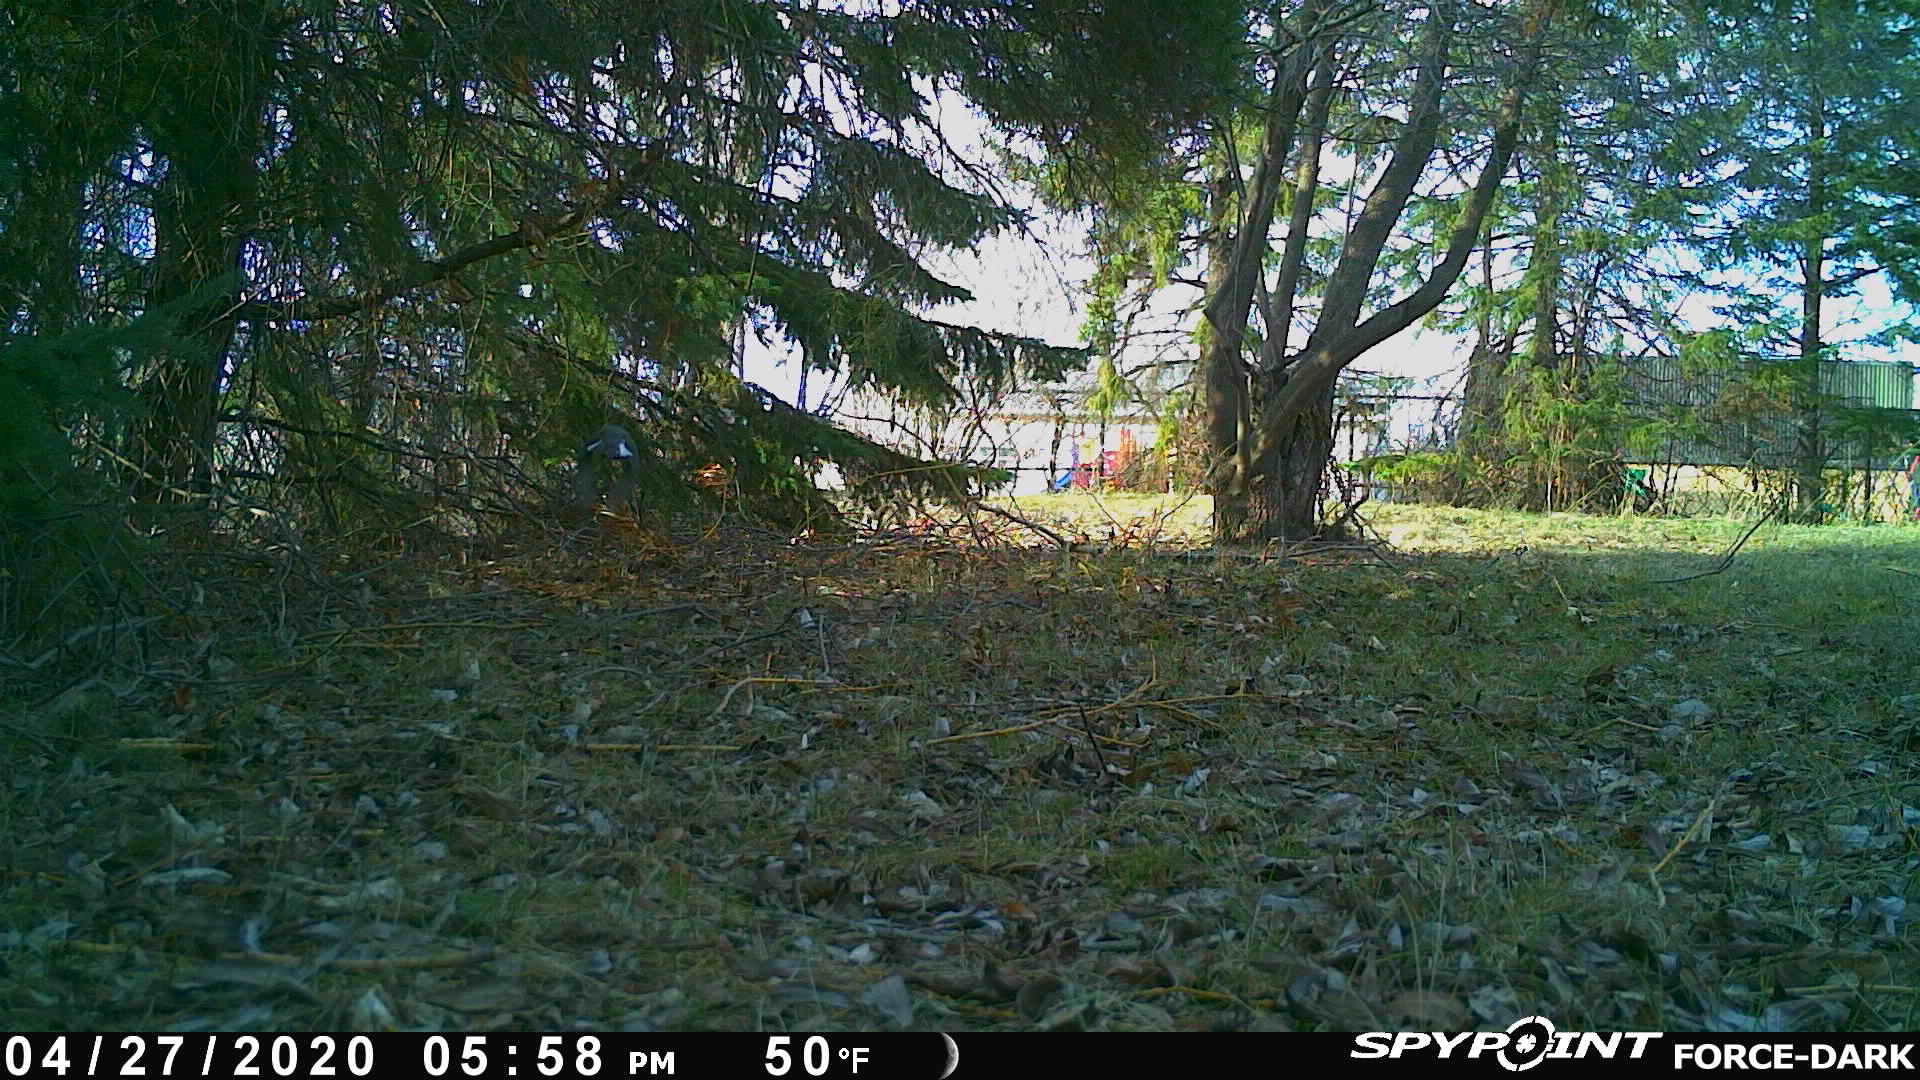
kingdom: Animalia
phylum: Chordata
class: Aves
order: Passeriformes
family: Passerellidae
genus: Junco
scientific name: Junco hyemalis
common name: Dark-eyed junco
